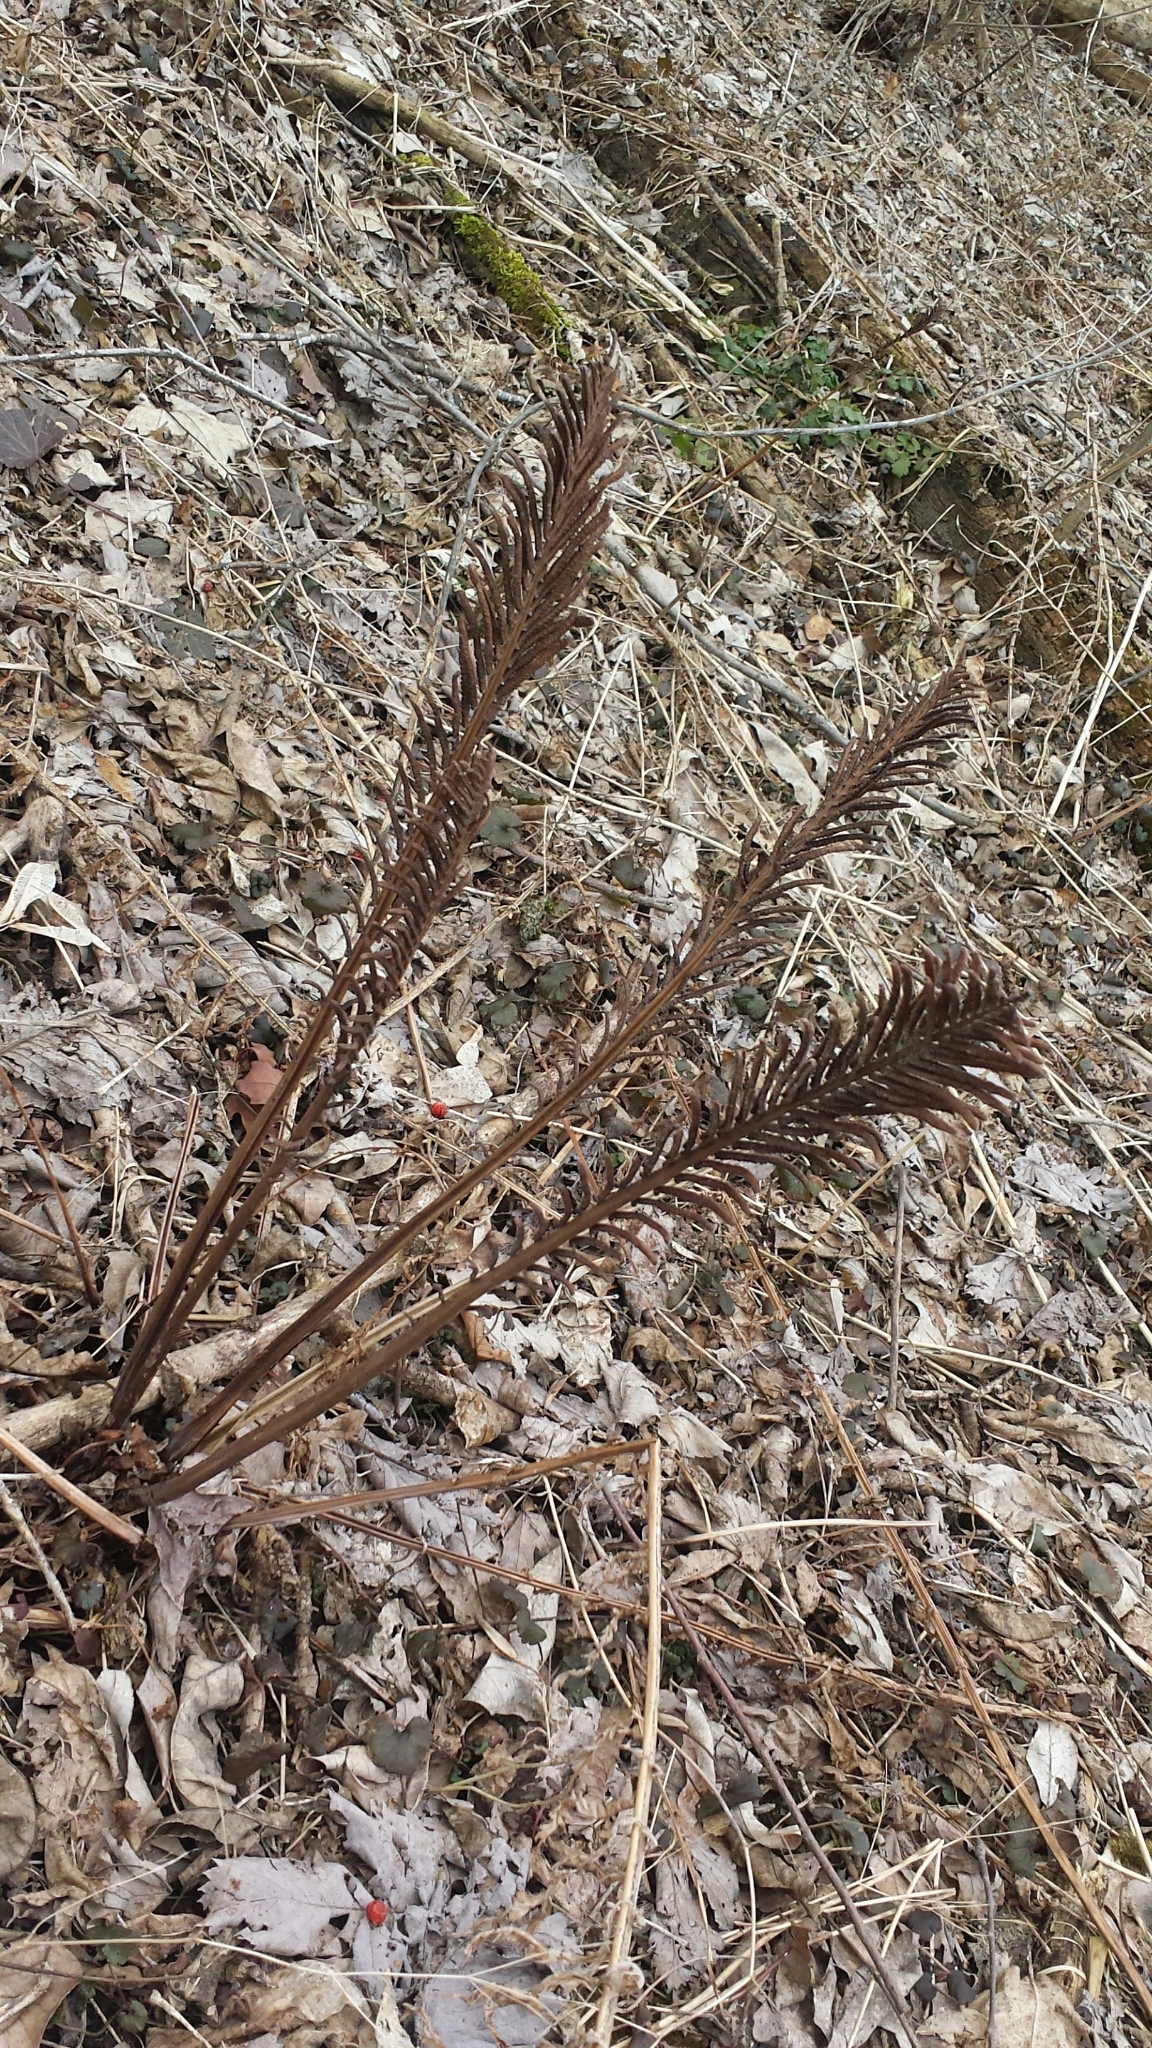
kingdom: Plantae
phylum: Tracheophyta
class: Polypodiopsida
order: Polypodiales
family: Onocleaceae
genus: Matteuccia
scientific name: Matteuccia struthiopteris
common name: Ostrich fern
